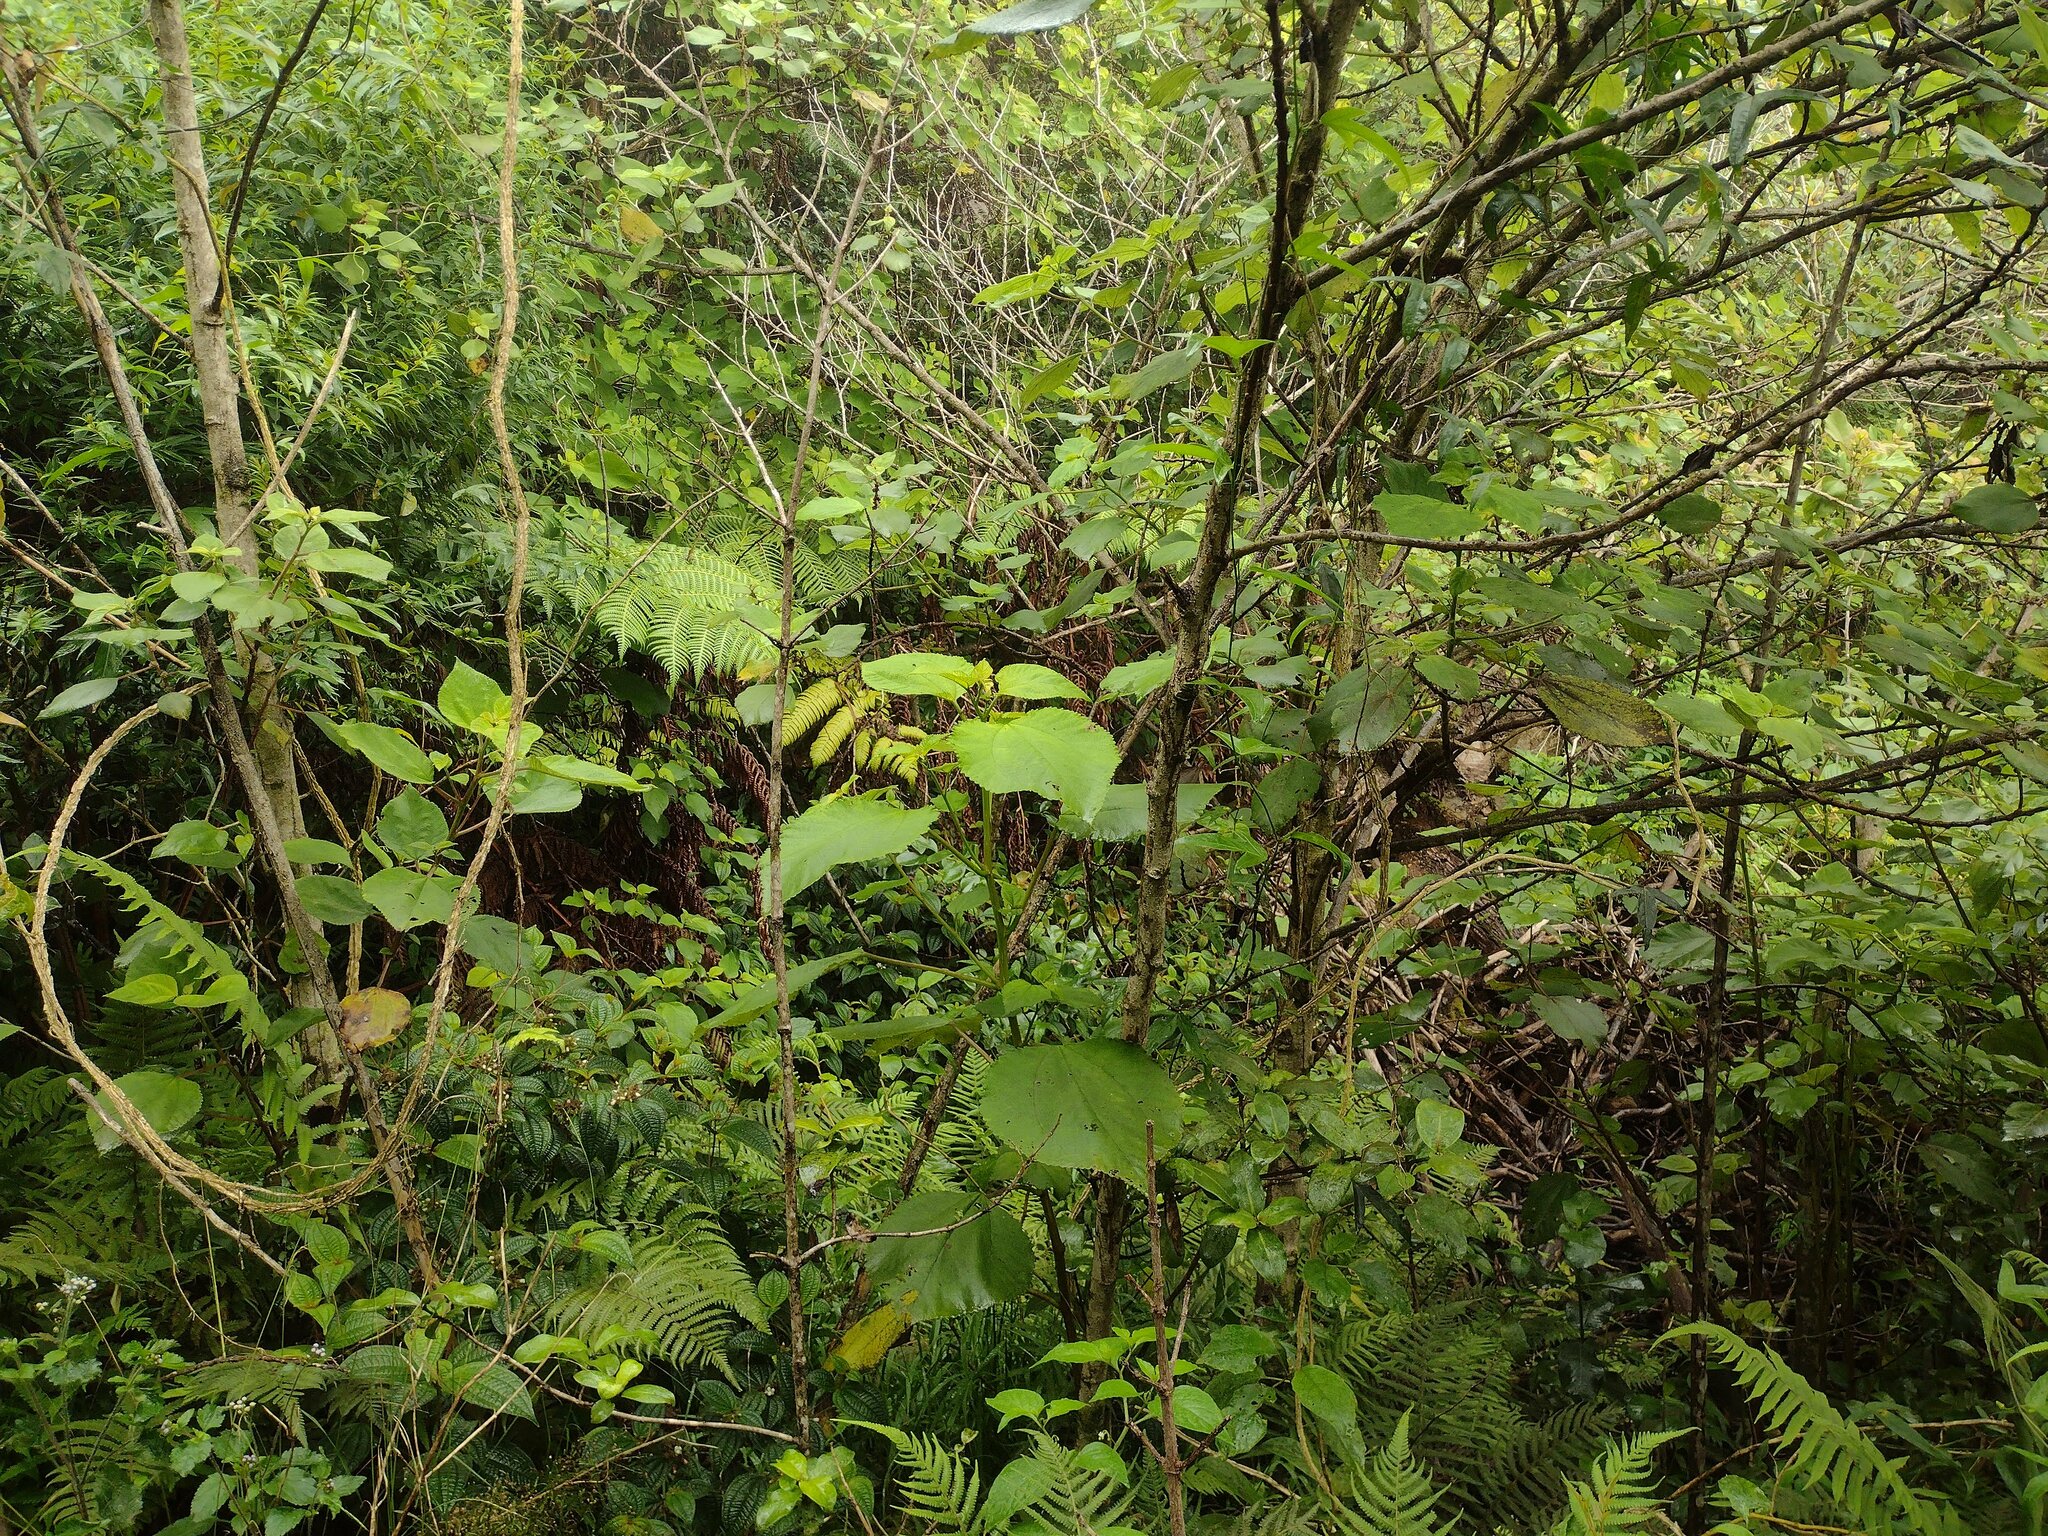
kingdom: Plantae
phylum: Tracheophyta
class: Magnoliopsida
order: Rosales
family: Urticaceae
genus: Pipturus
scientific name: Pipturus albidus
